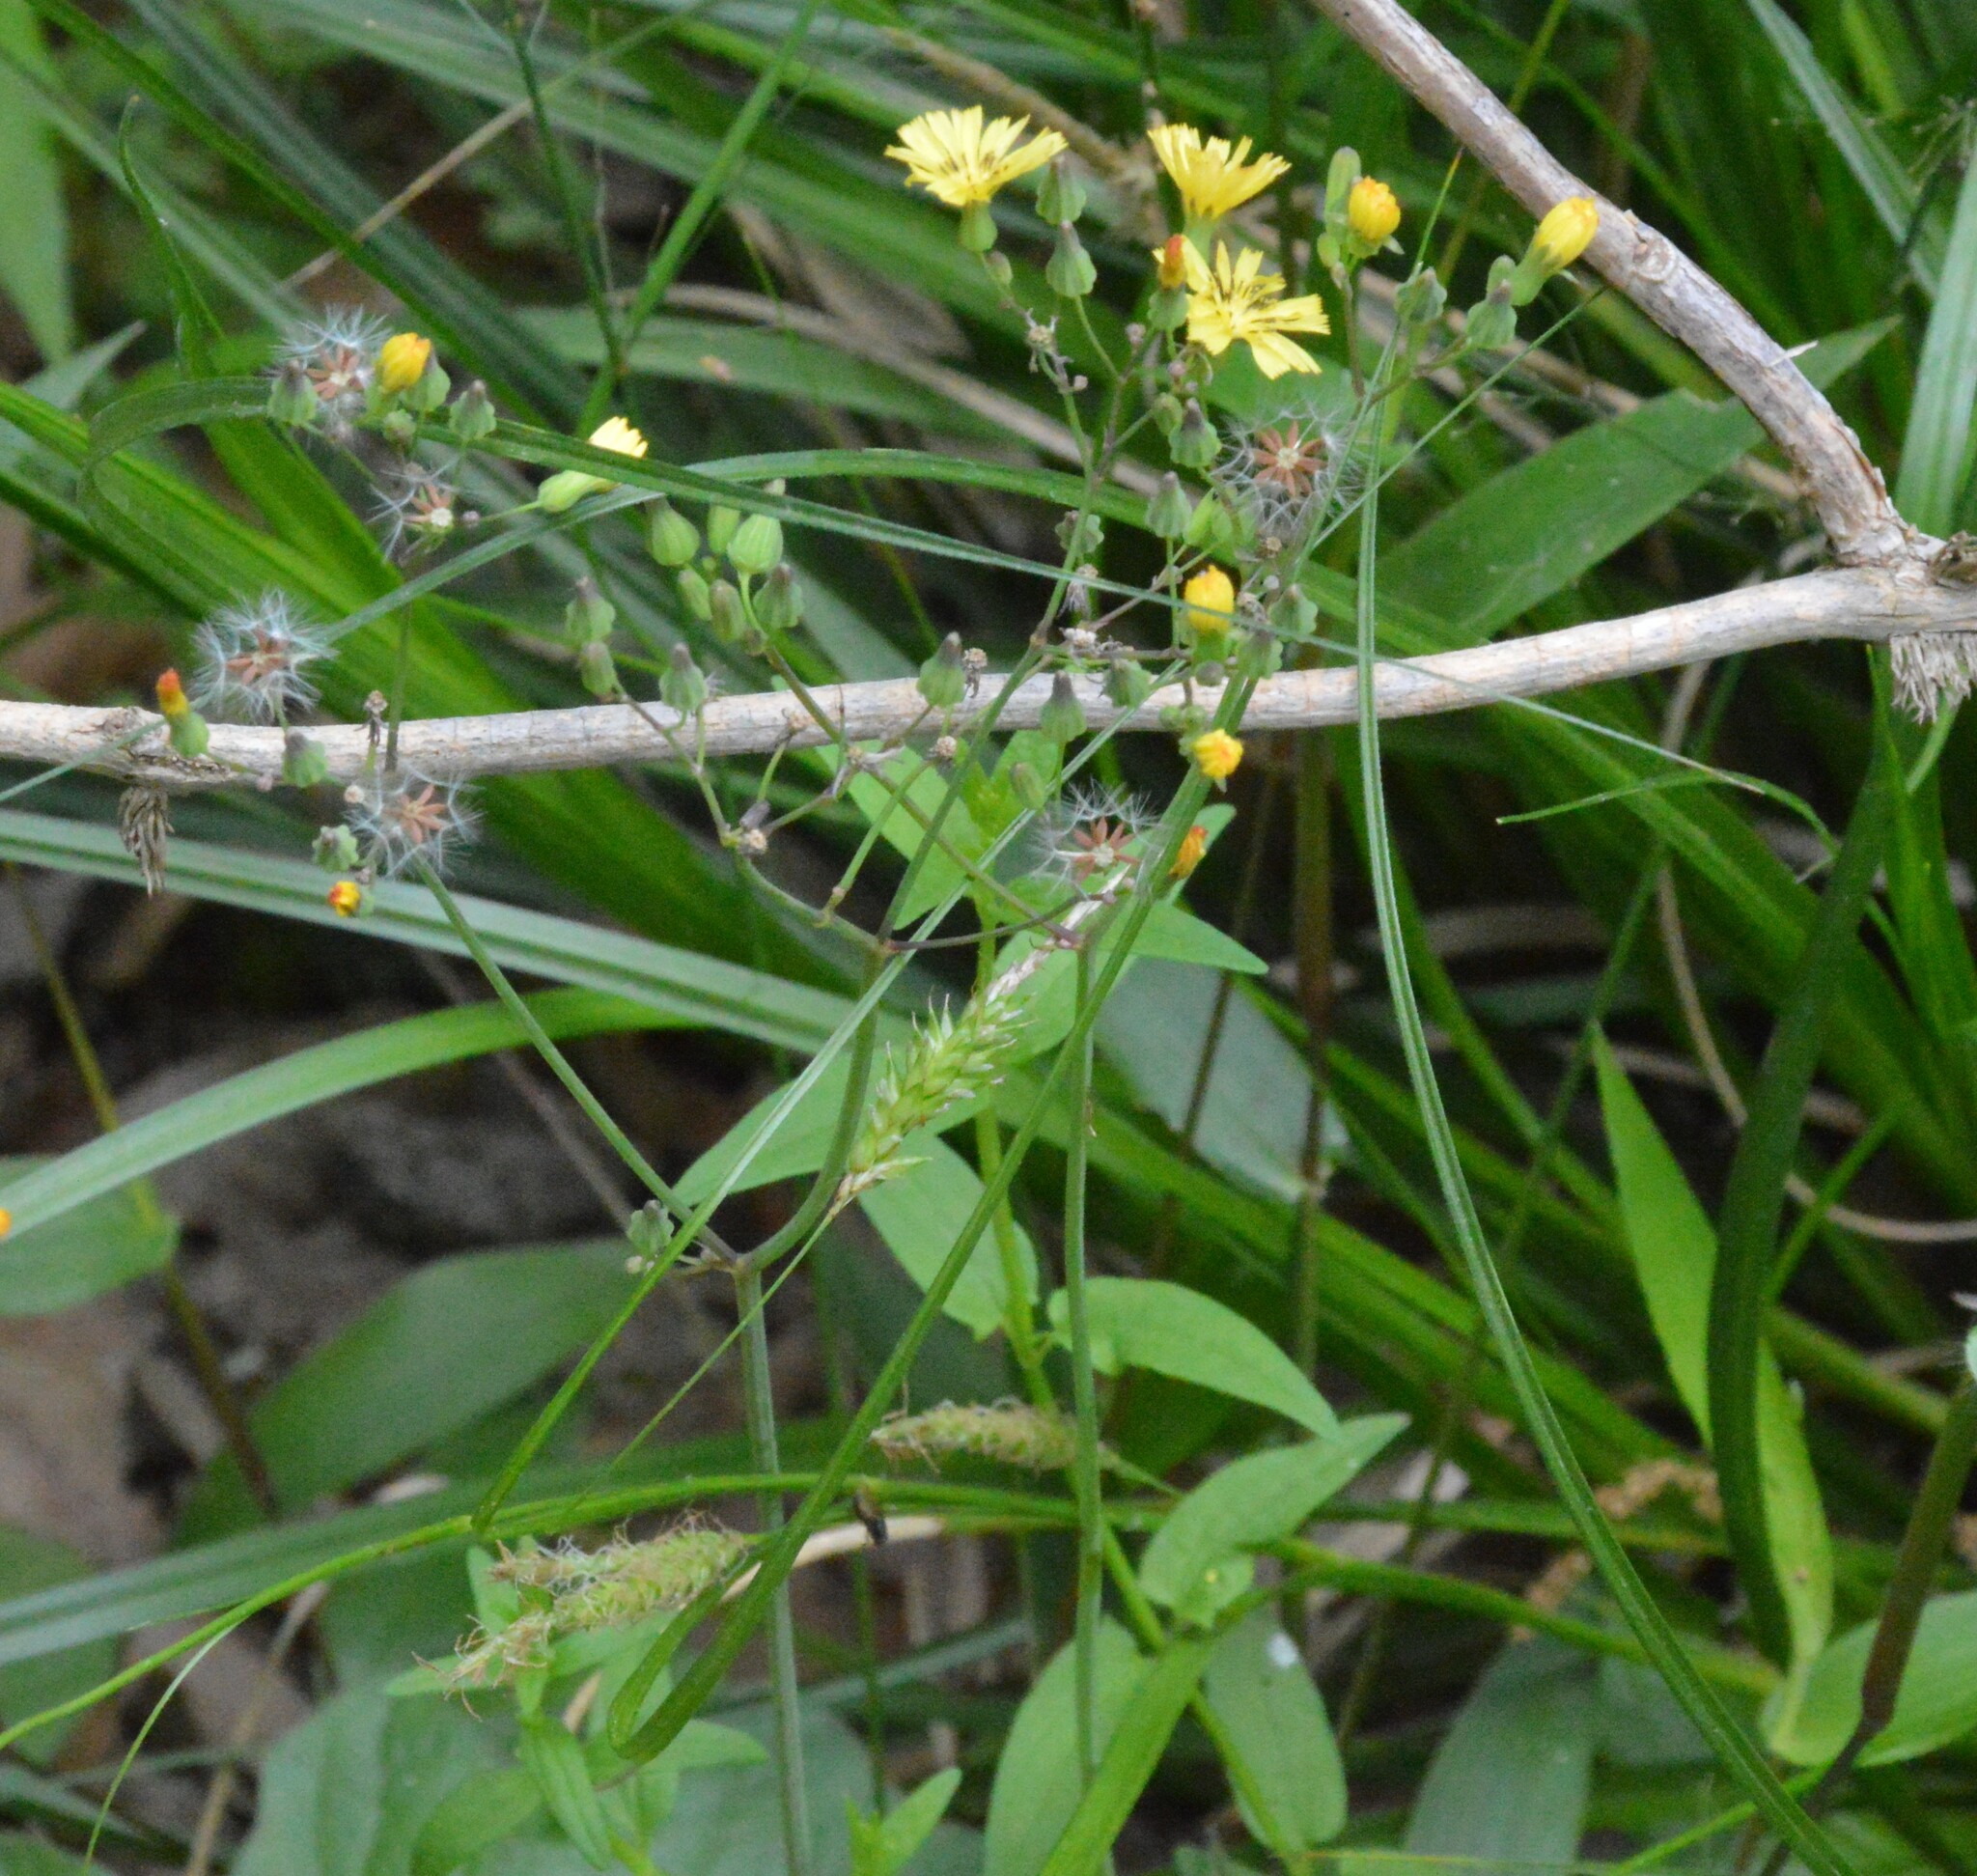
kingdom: Plantae
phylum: Tracheophyta
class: Magnoliopsida
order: Asterales
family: Asteraceae
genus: Youngia
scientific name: Youngia japonica
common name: Oriental false hawksbeard
